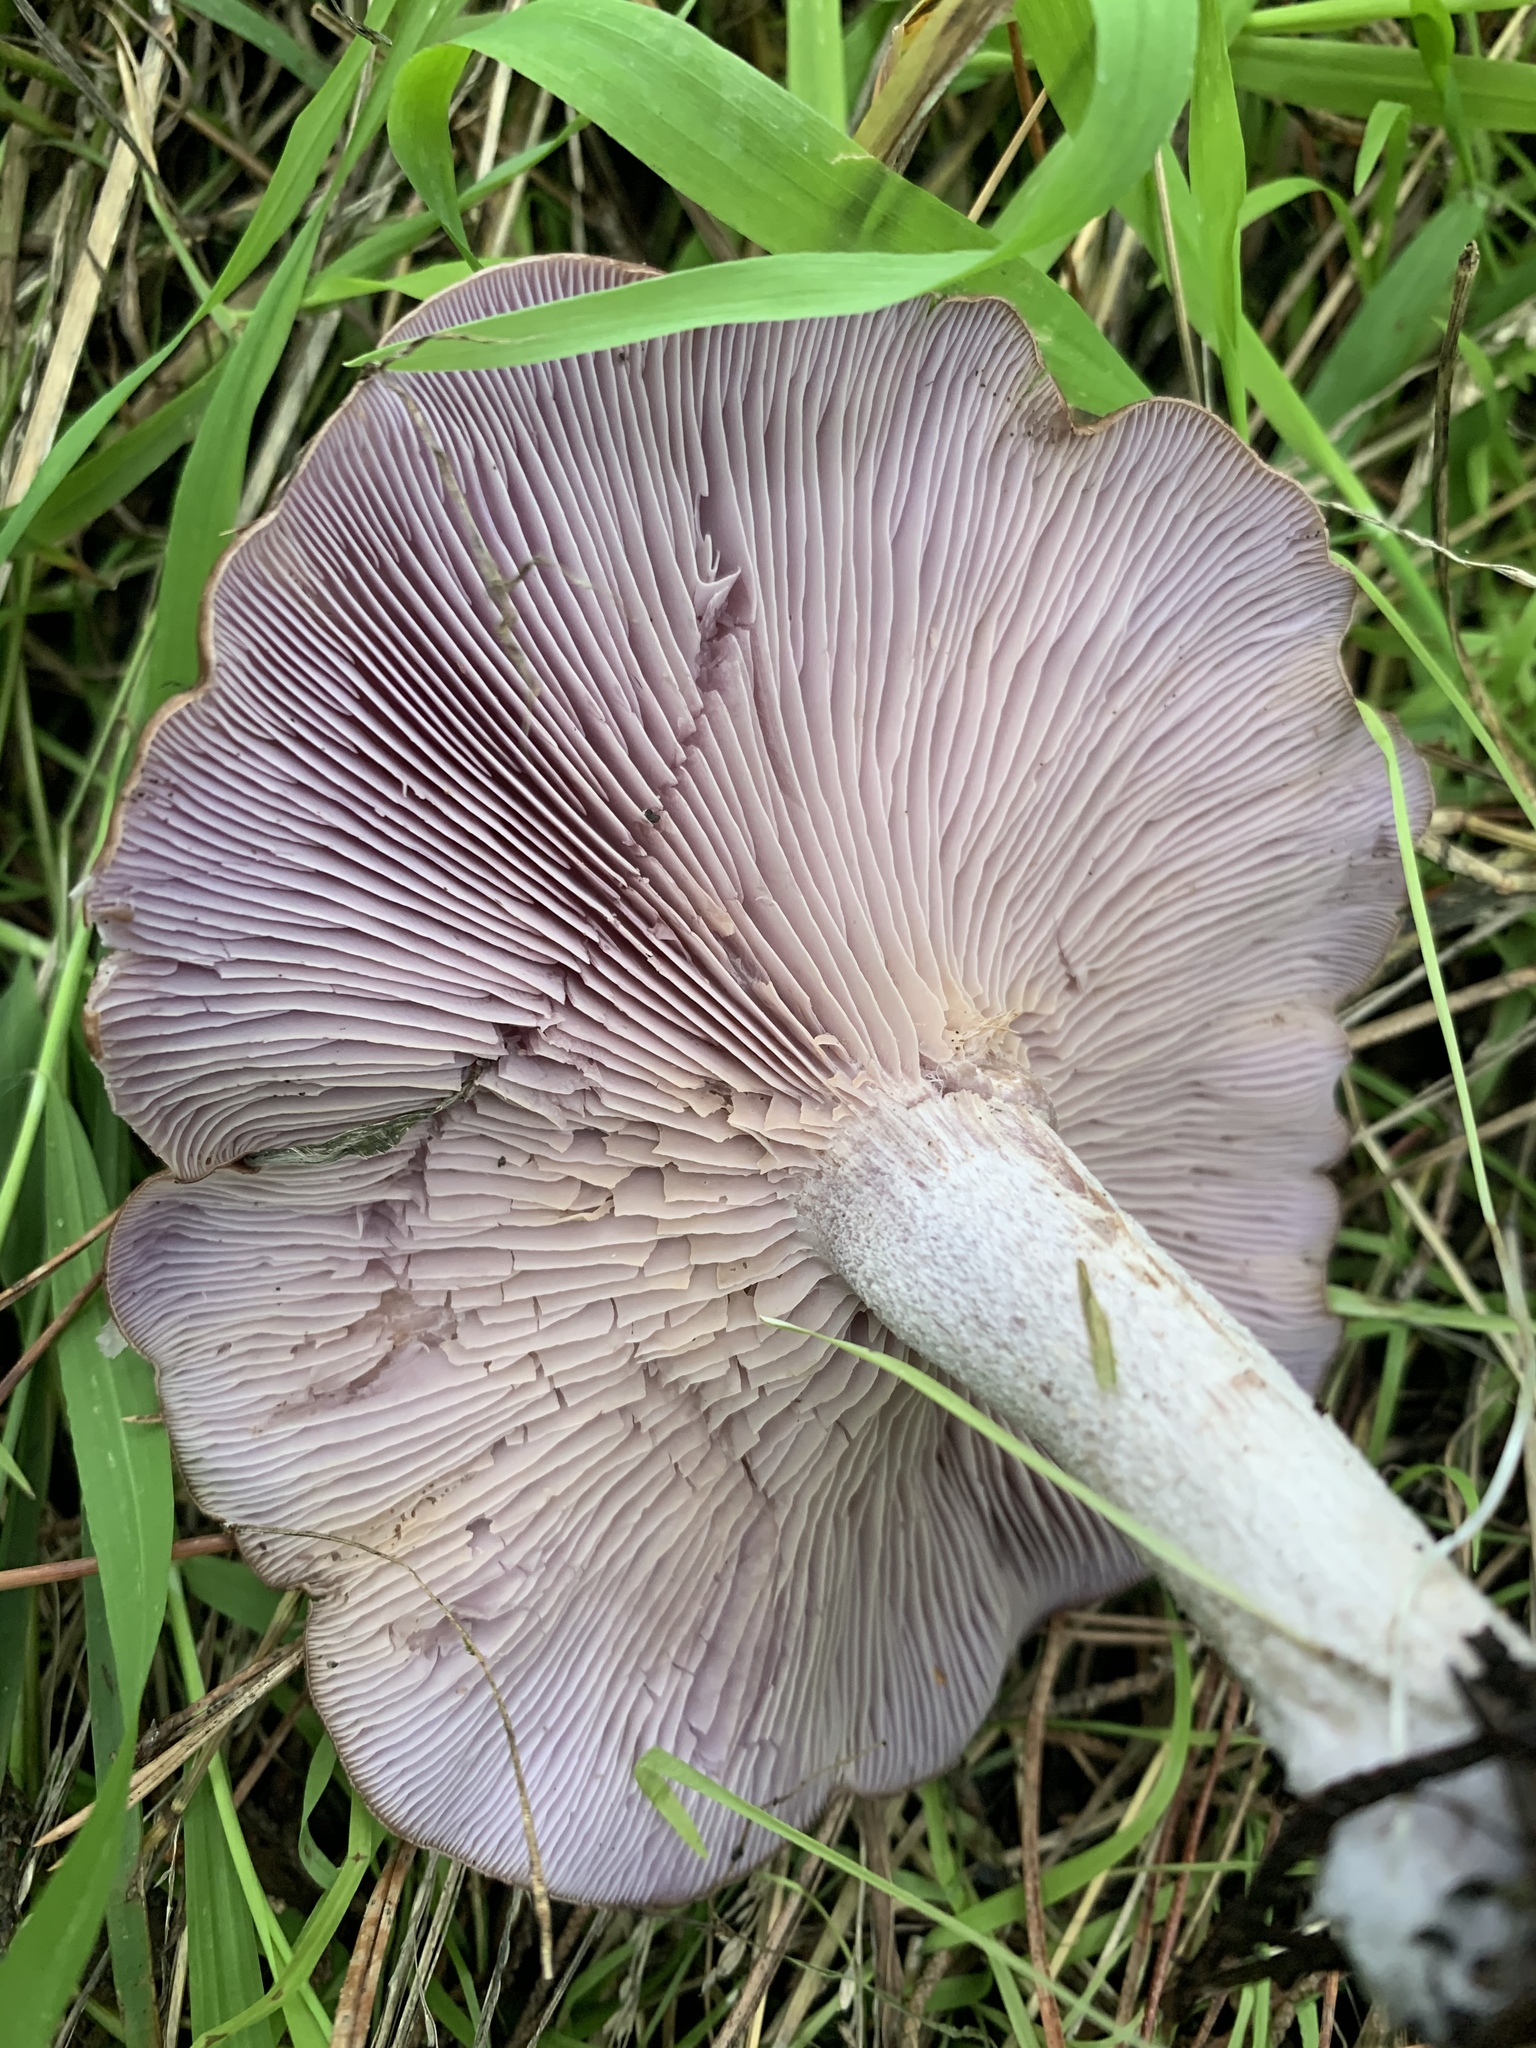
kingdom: Fungi
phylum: Basidiomycota
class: Agaricomycetes
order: Agaricales
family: Tricholomataceae
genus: Collybia
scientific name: Collybia
